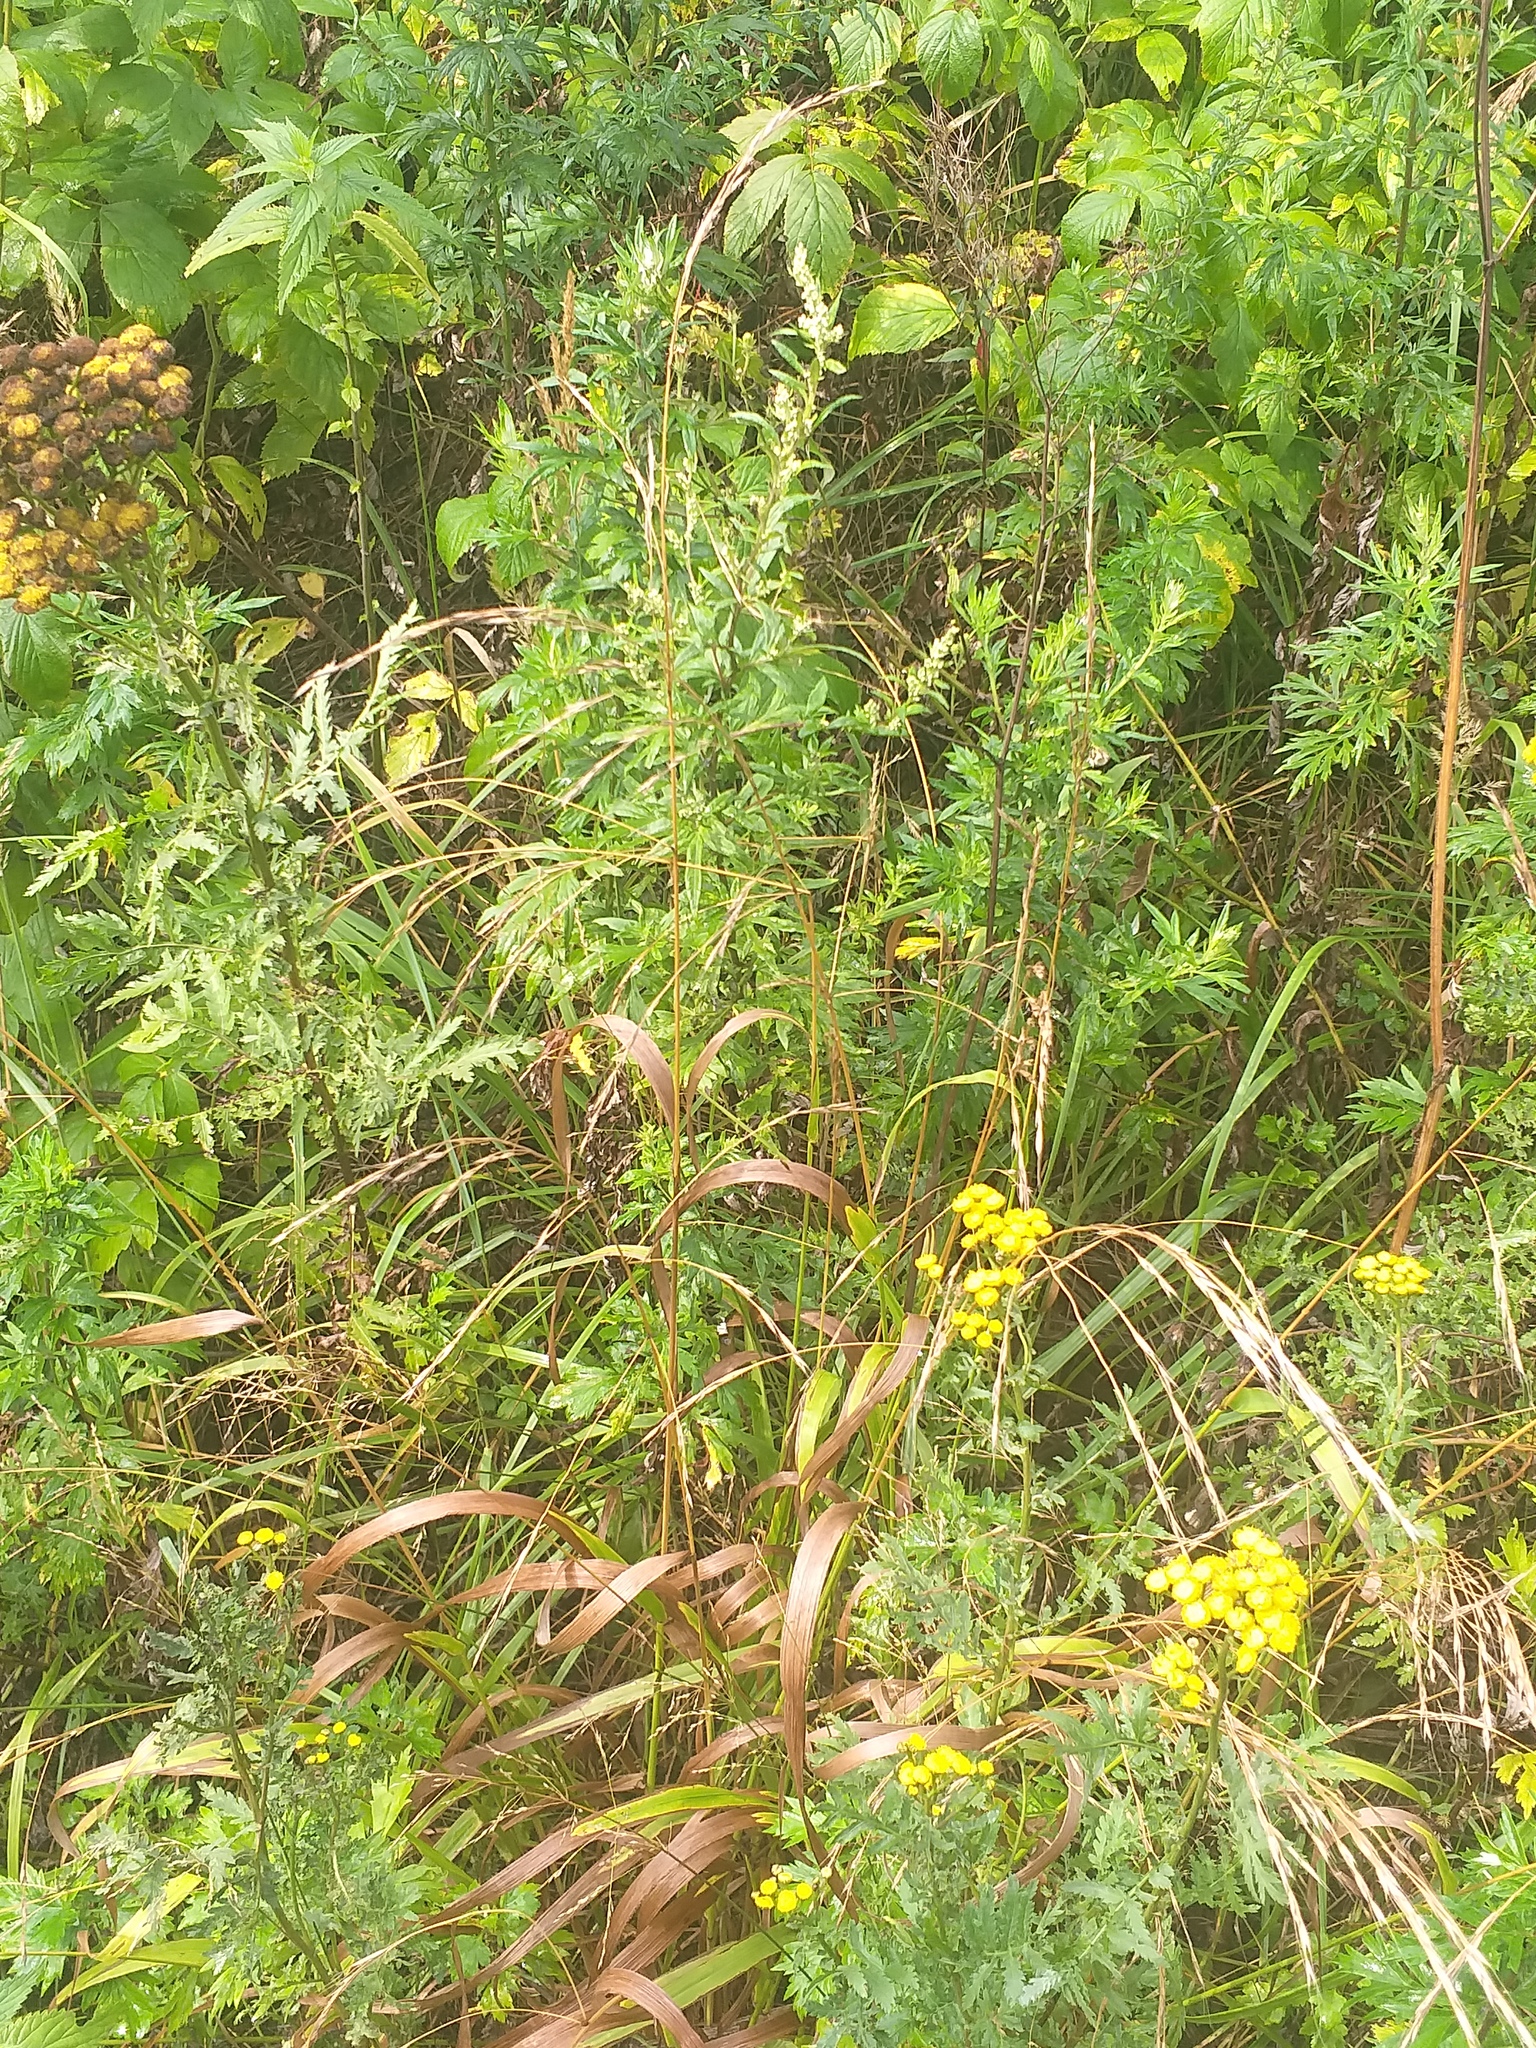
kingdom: Plantae
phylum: Tracheophyta
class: Liliopsida
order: Poales
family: Poaceae
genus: Lolium
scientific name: Lolium giganteum
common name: Giant fescue
